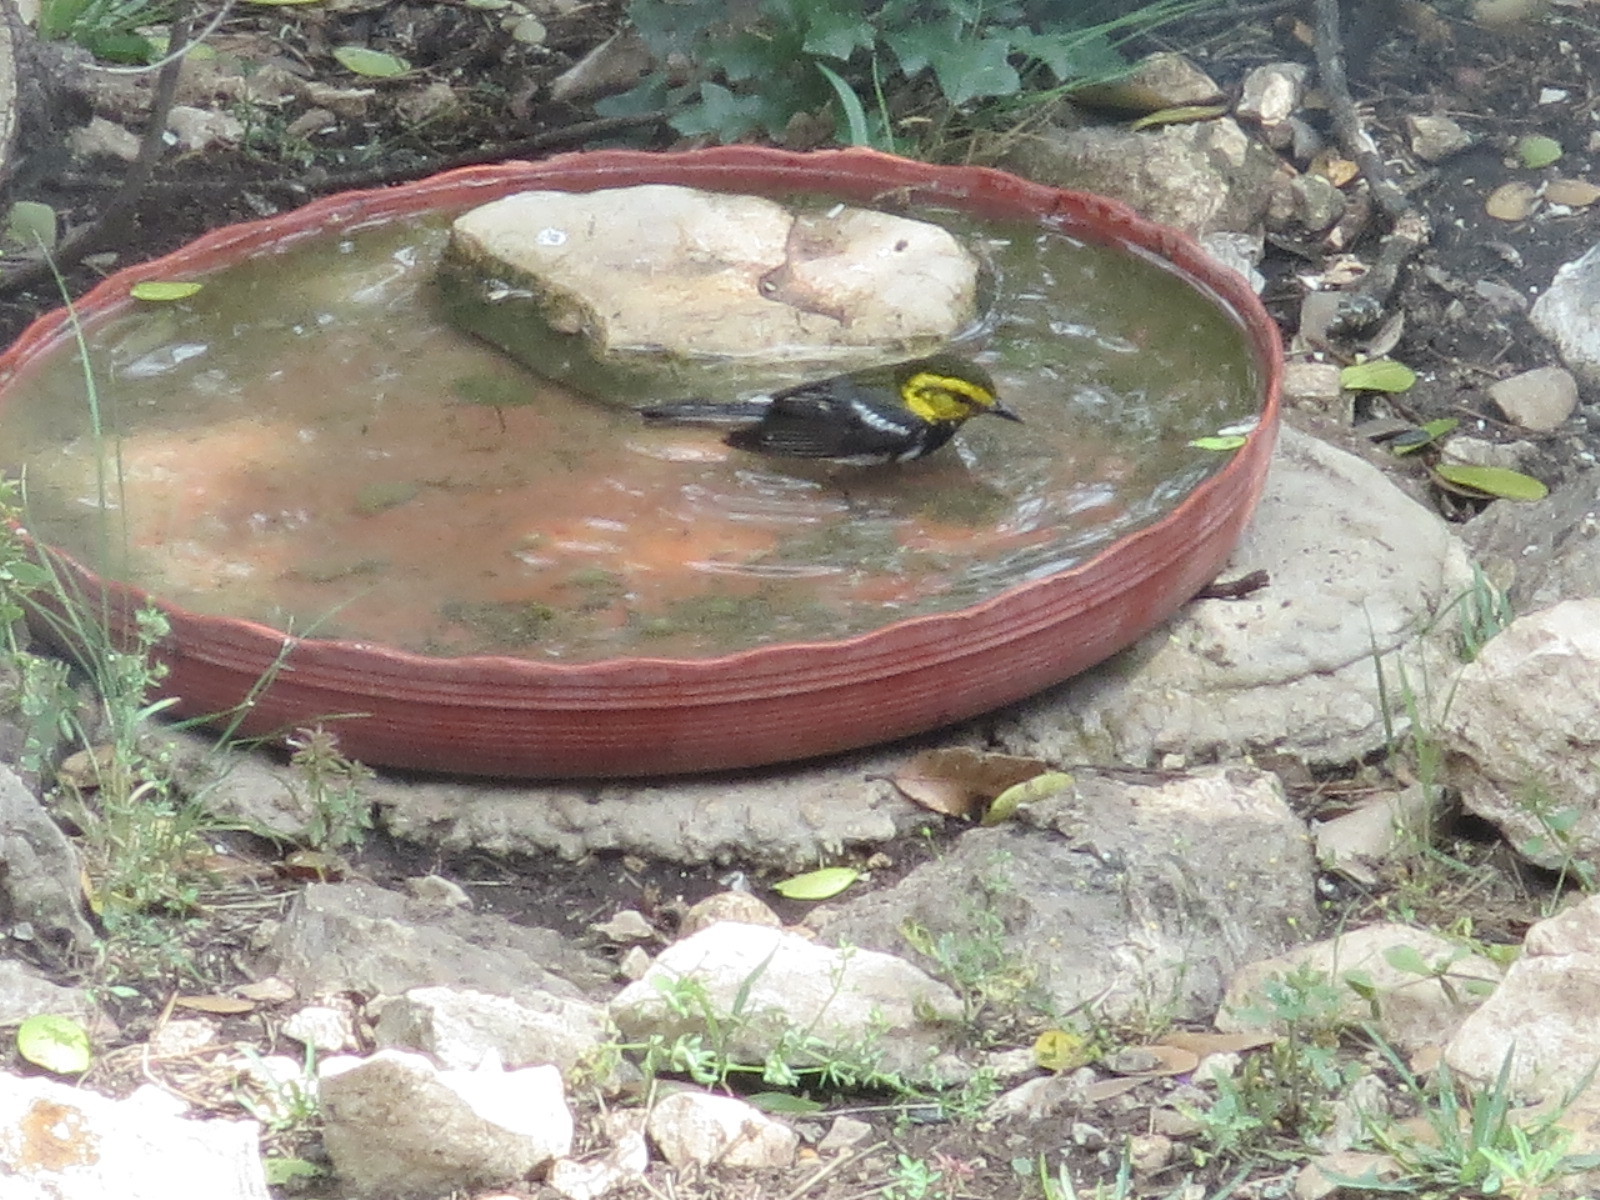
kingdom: Animalia
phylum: Chordata
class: Aves
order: Passeriformes
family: Parulidae
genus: Setophaga
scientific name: Setophaga chrysoparia
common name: Golden-cheeked warbler
